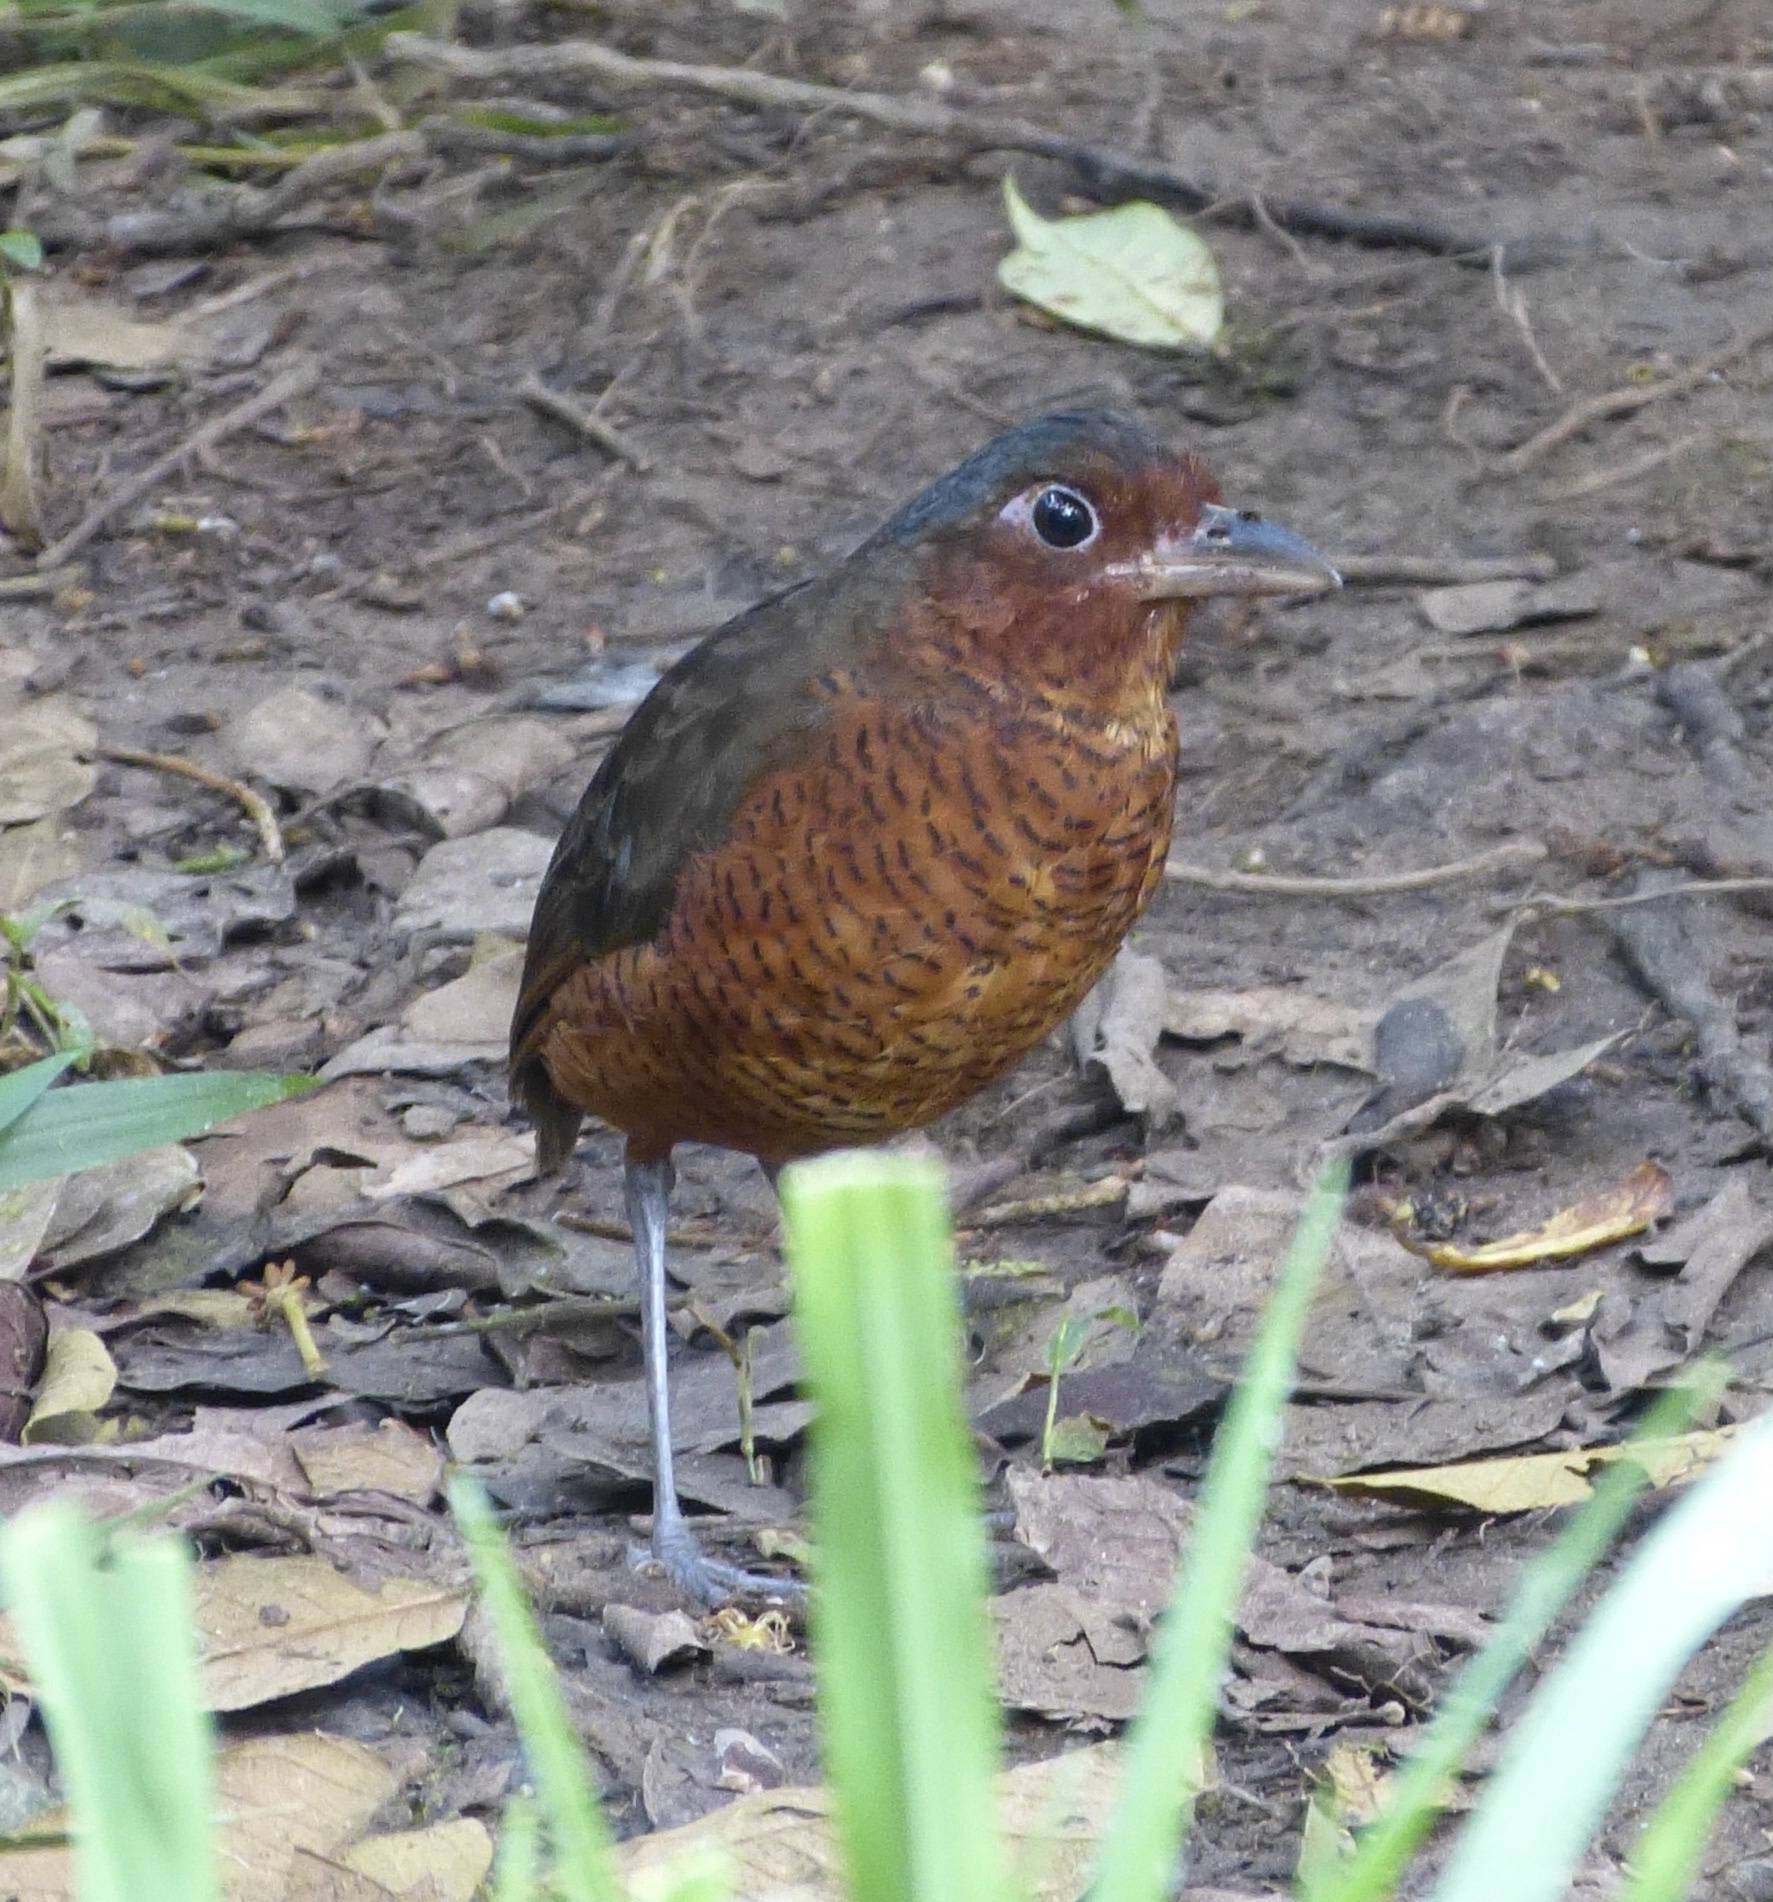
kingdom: Animalia
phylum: Chordata
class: Aves
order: Passeriformes
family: Grallariidae
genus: Grallaria
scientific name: Grallaria gigantea
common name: Giant antpitta
